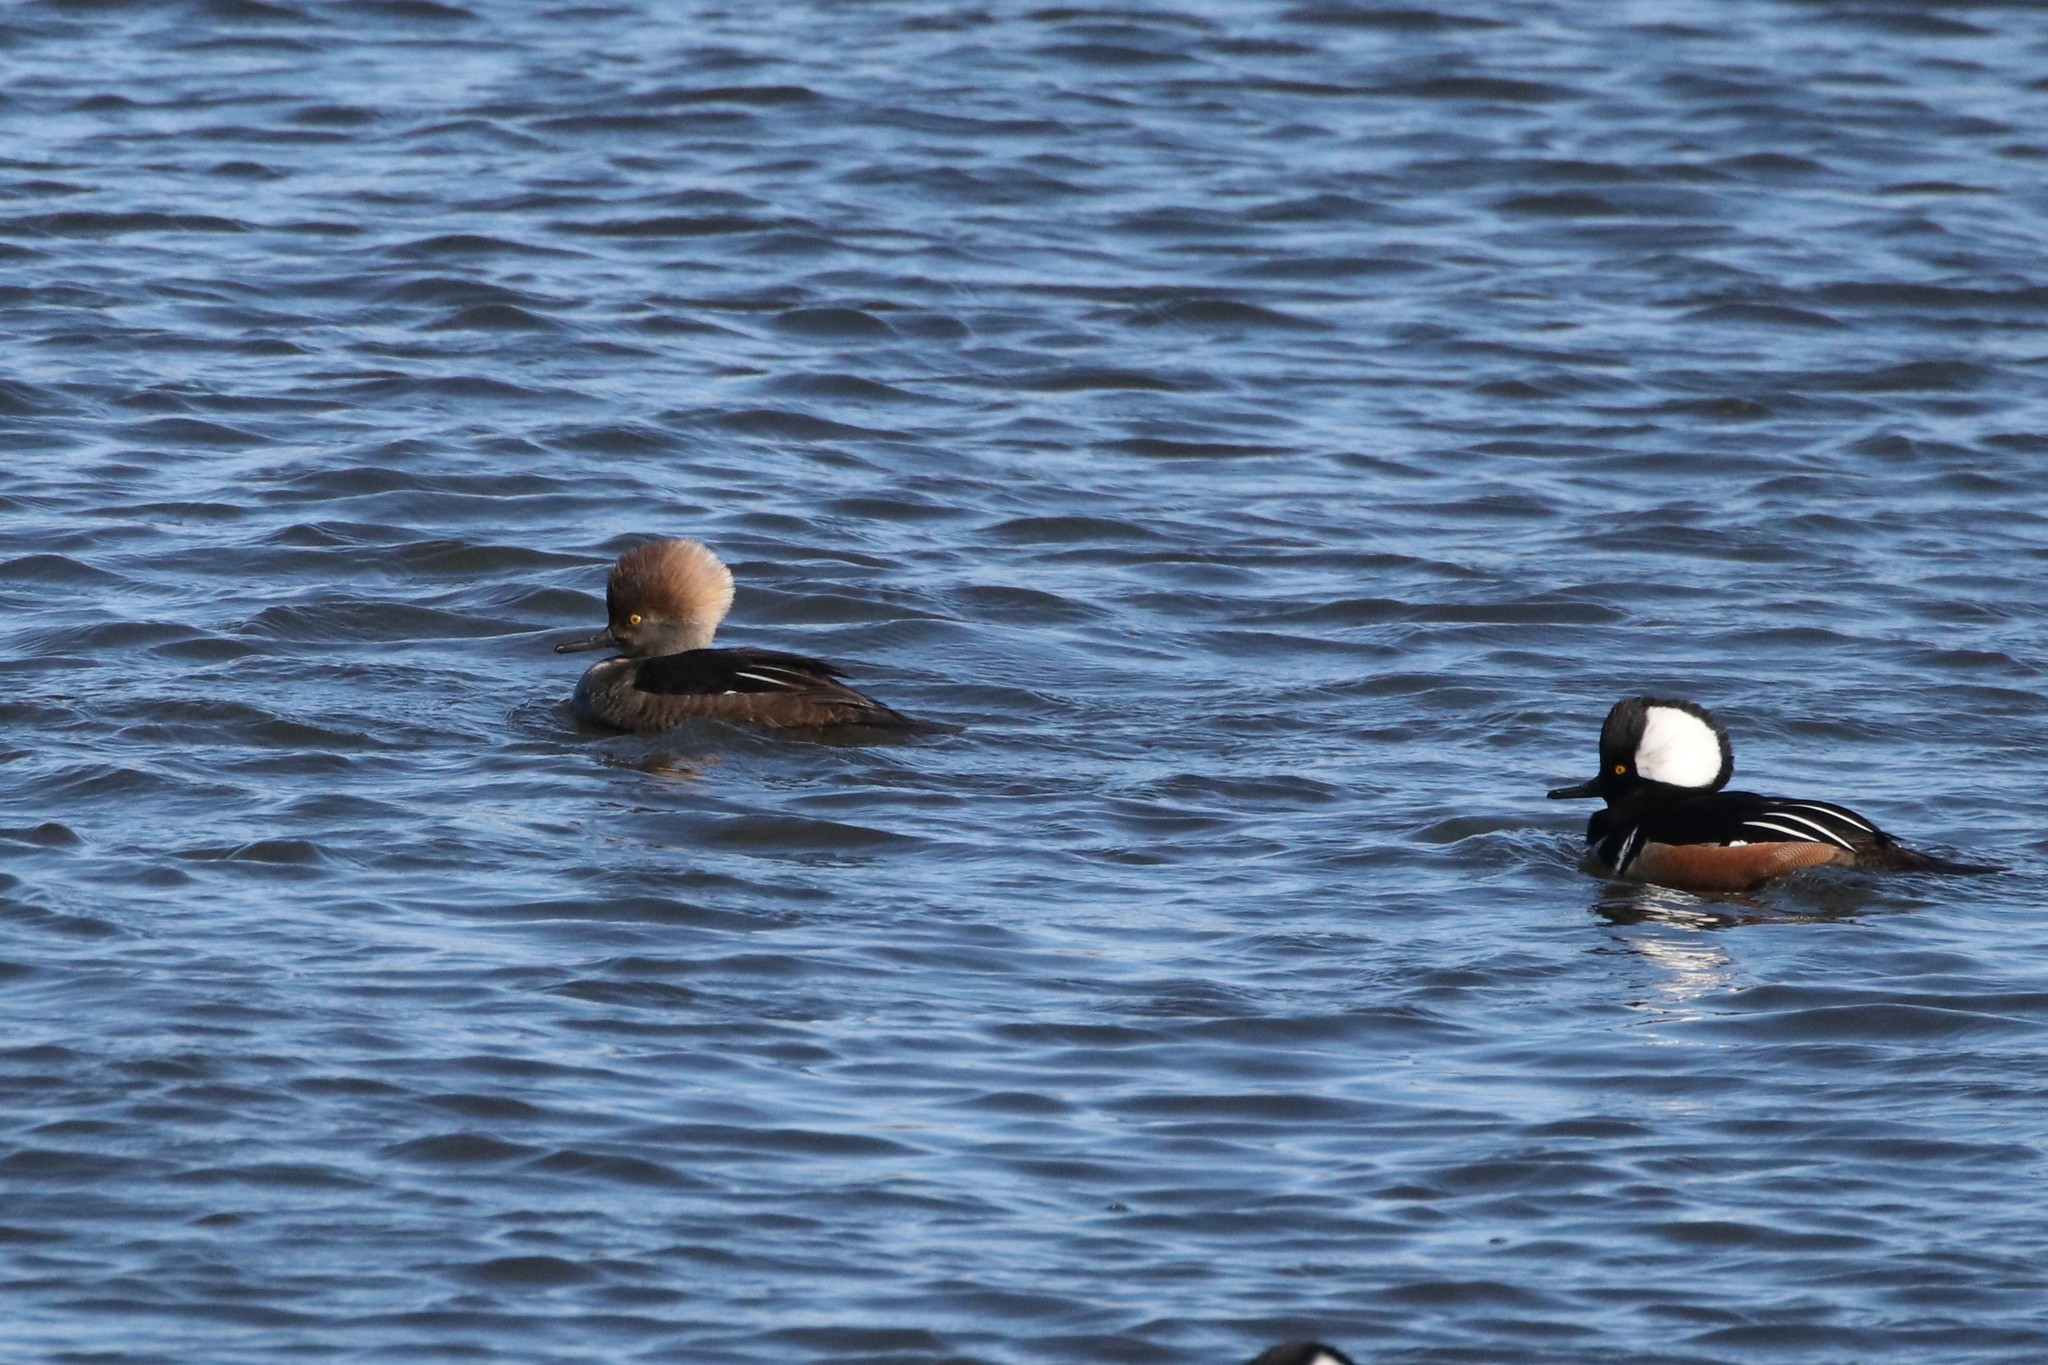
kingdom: Animalia
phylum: Chordata
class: Aves
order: Anseriformes
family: Anatidae
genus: Lophodytes
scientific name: Lophodytes cucullatus
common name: Hooded merganser
